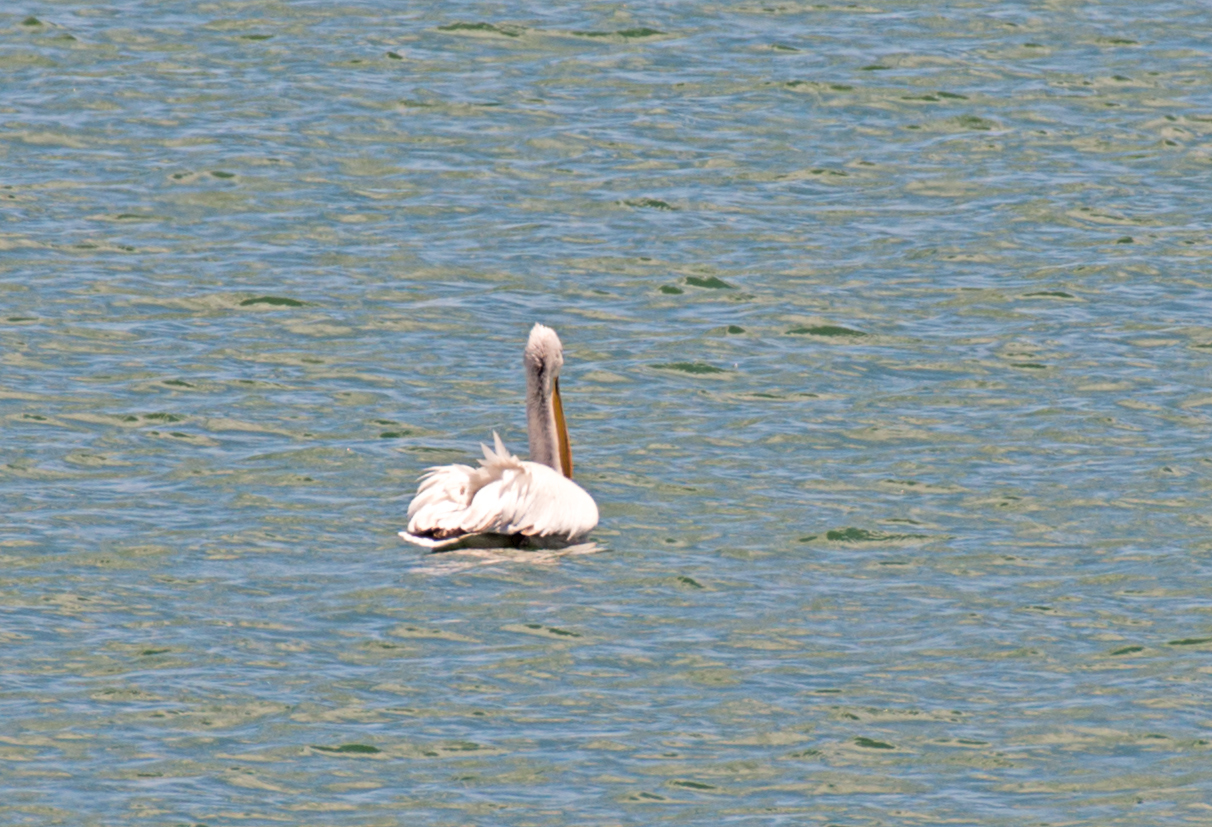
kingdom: Animalia
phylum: Chordata
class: Aves
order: Pelecaniformes
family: Pelecanidae
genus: Pelecanus
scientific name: Pelecanus crispus
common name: Dalmatian pelican
